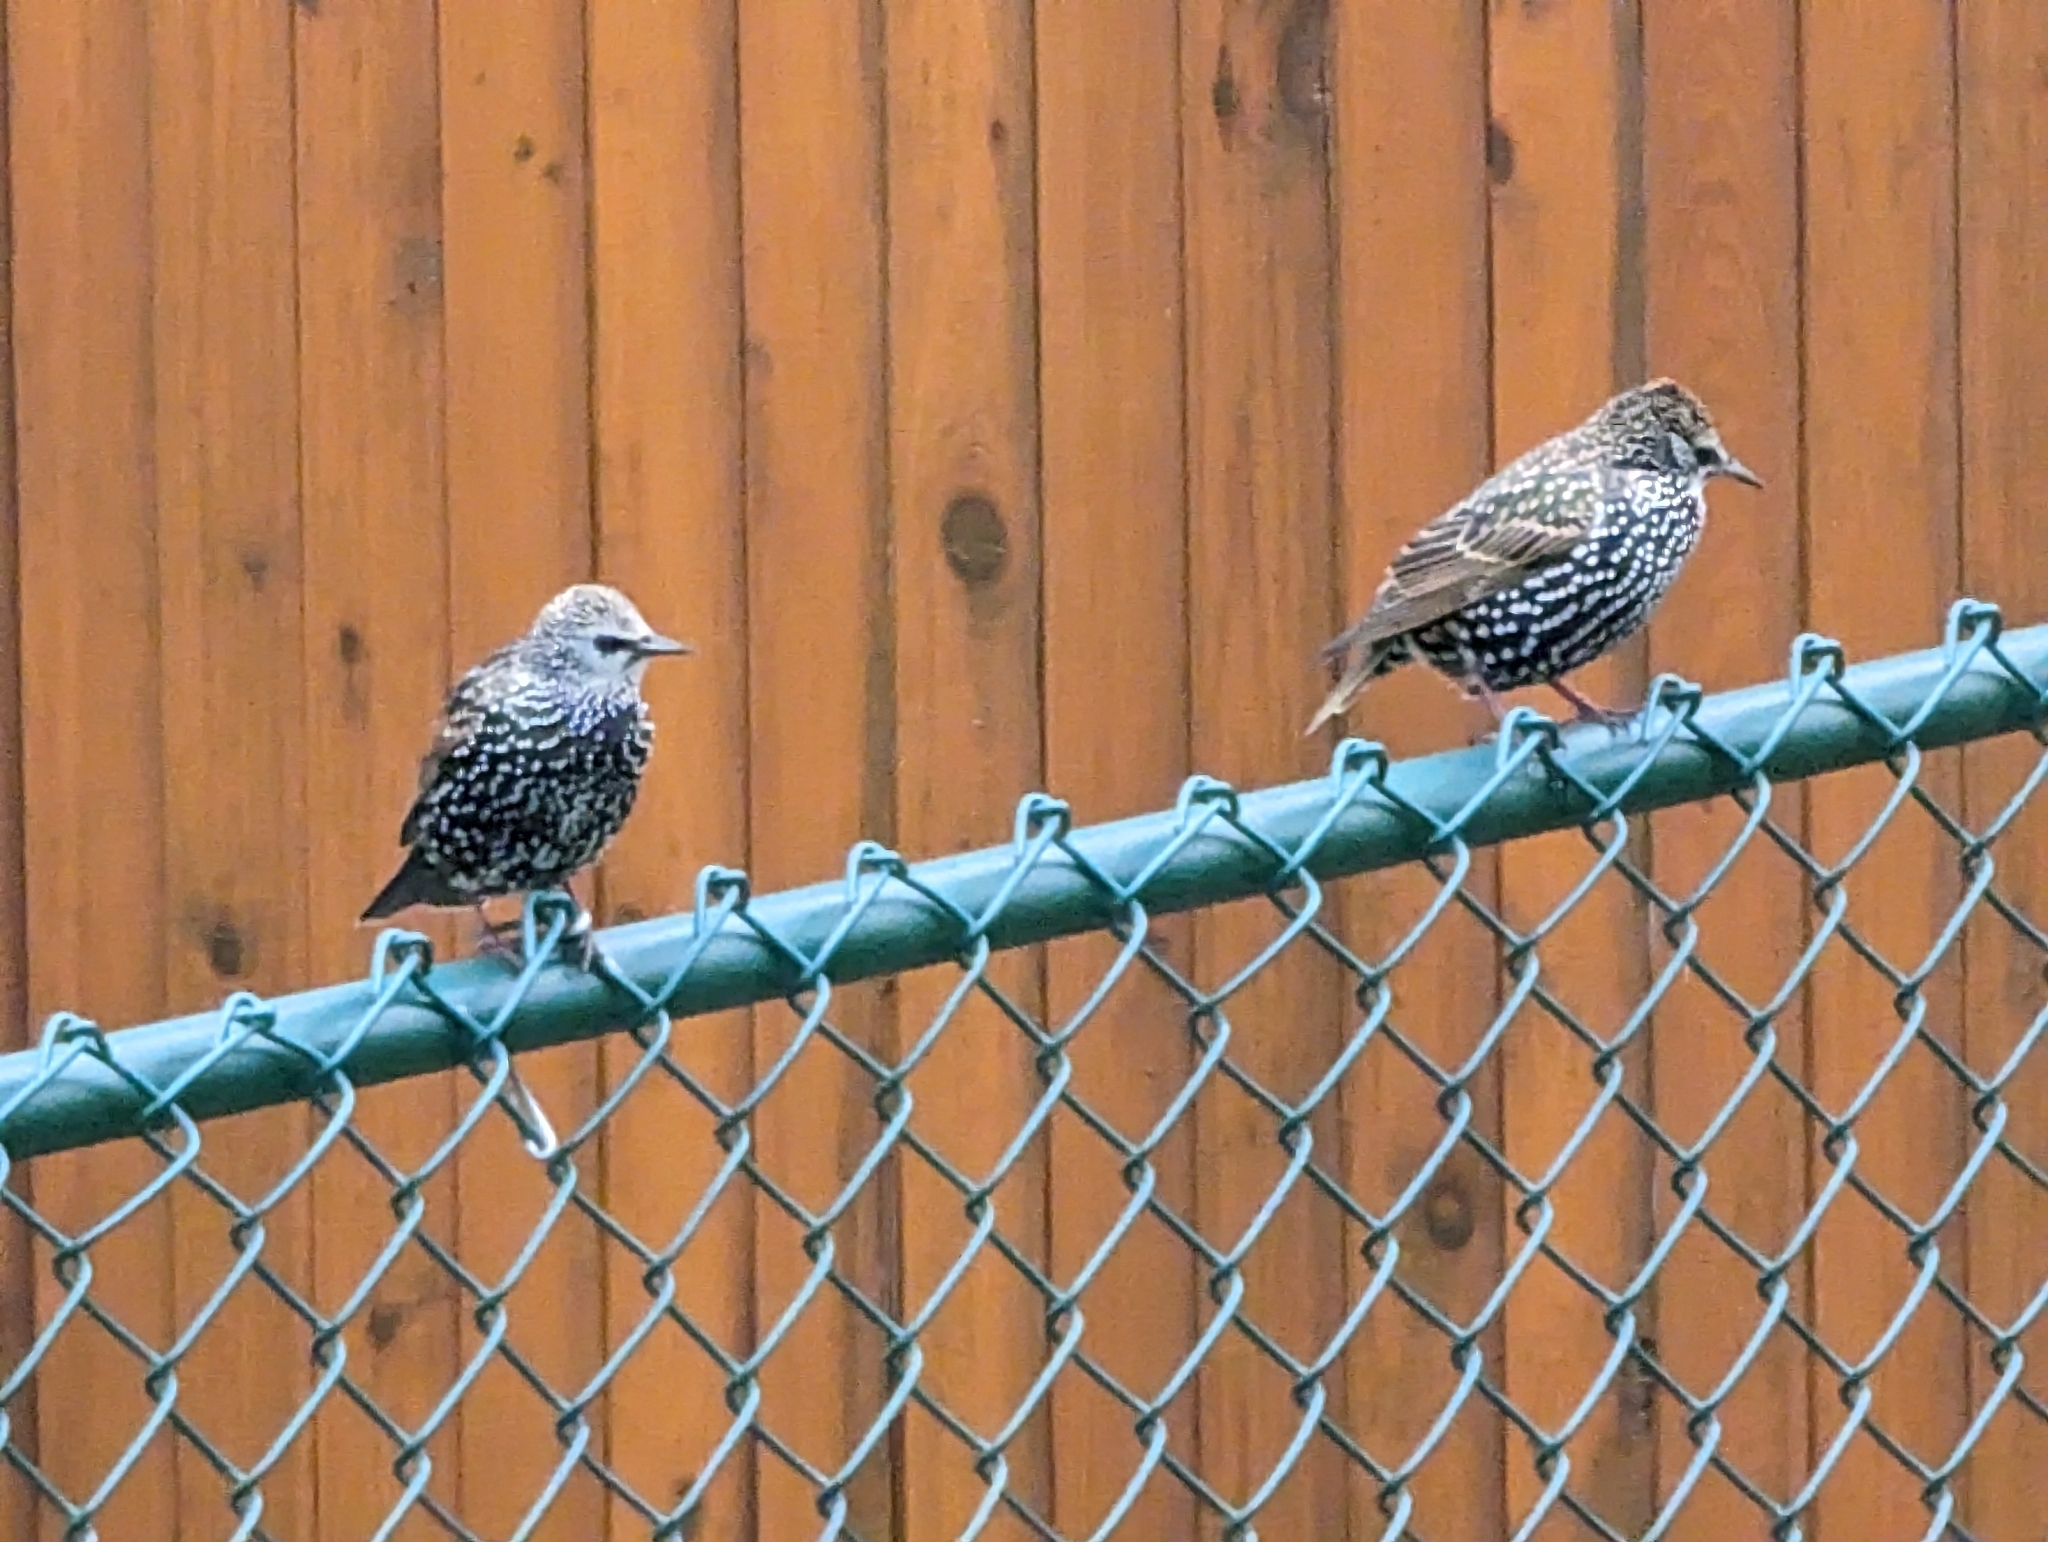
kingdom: Animalia
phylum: Chordata
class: Aves
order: Passeriformes
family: Sturnidae
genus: Sturnus
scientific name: Sturnus vulgaris
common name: Common starling
